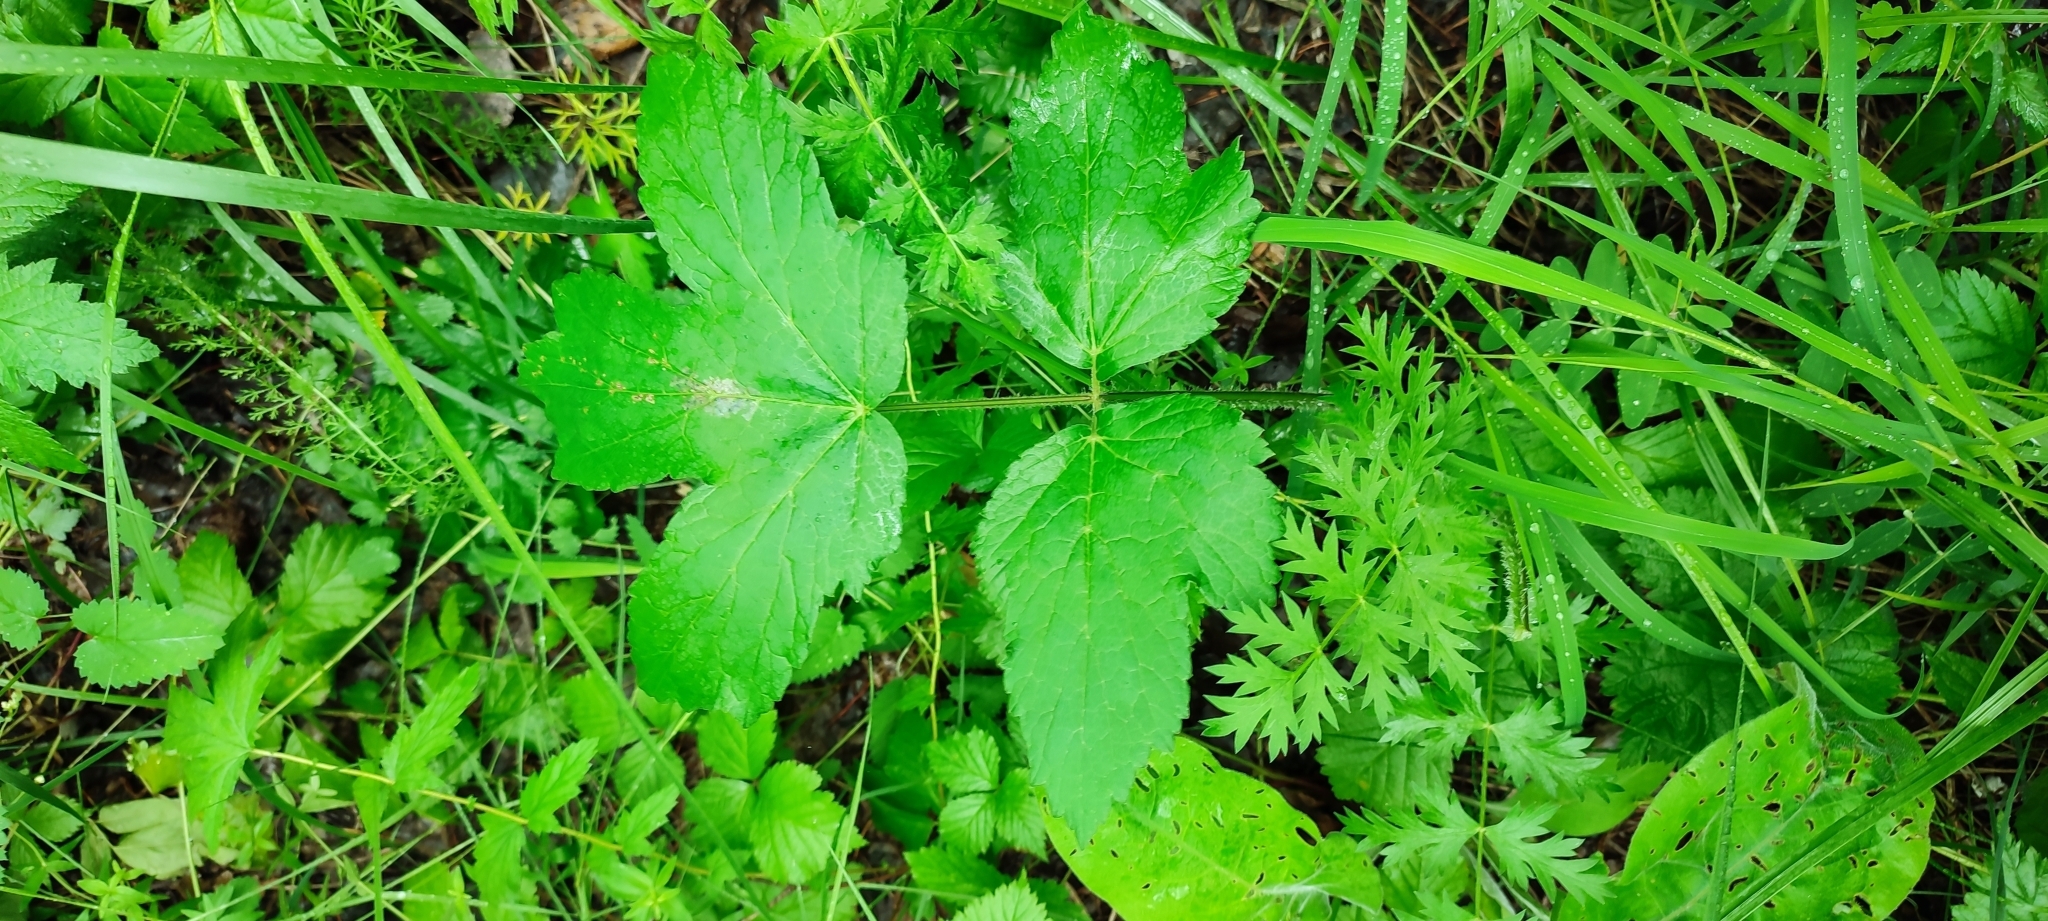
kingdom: Plantae
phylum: Tracheophyta
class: Magnoliopsida
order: Apiales
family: Apiaceae
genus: Heracleum
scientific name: Heracleum sphondylium
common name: Hogweed
